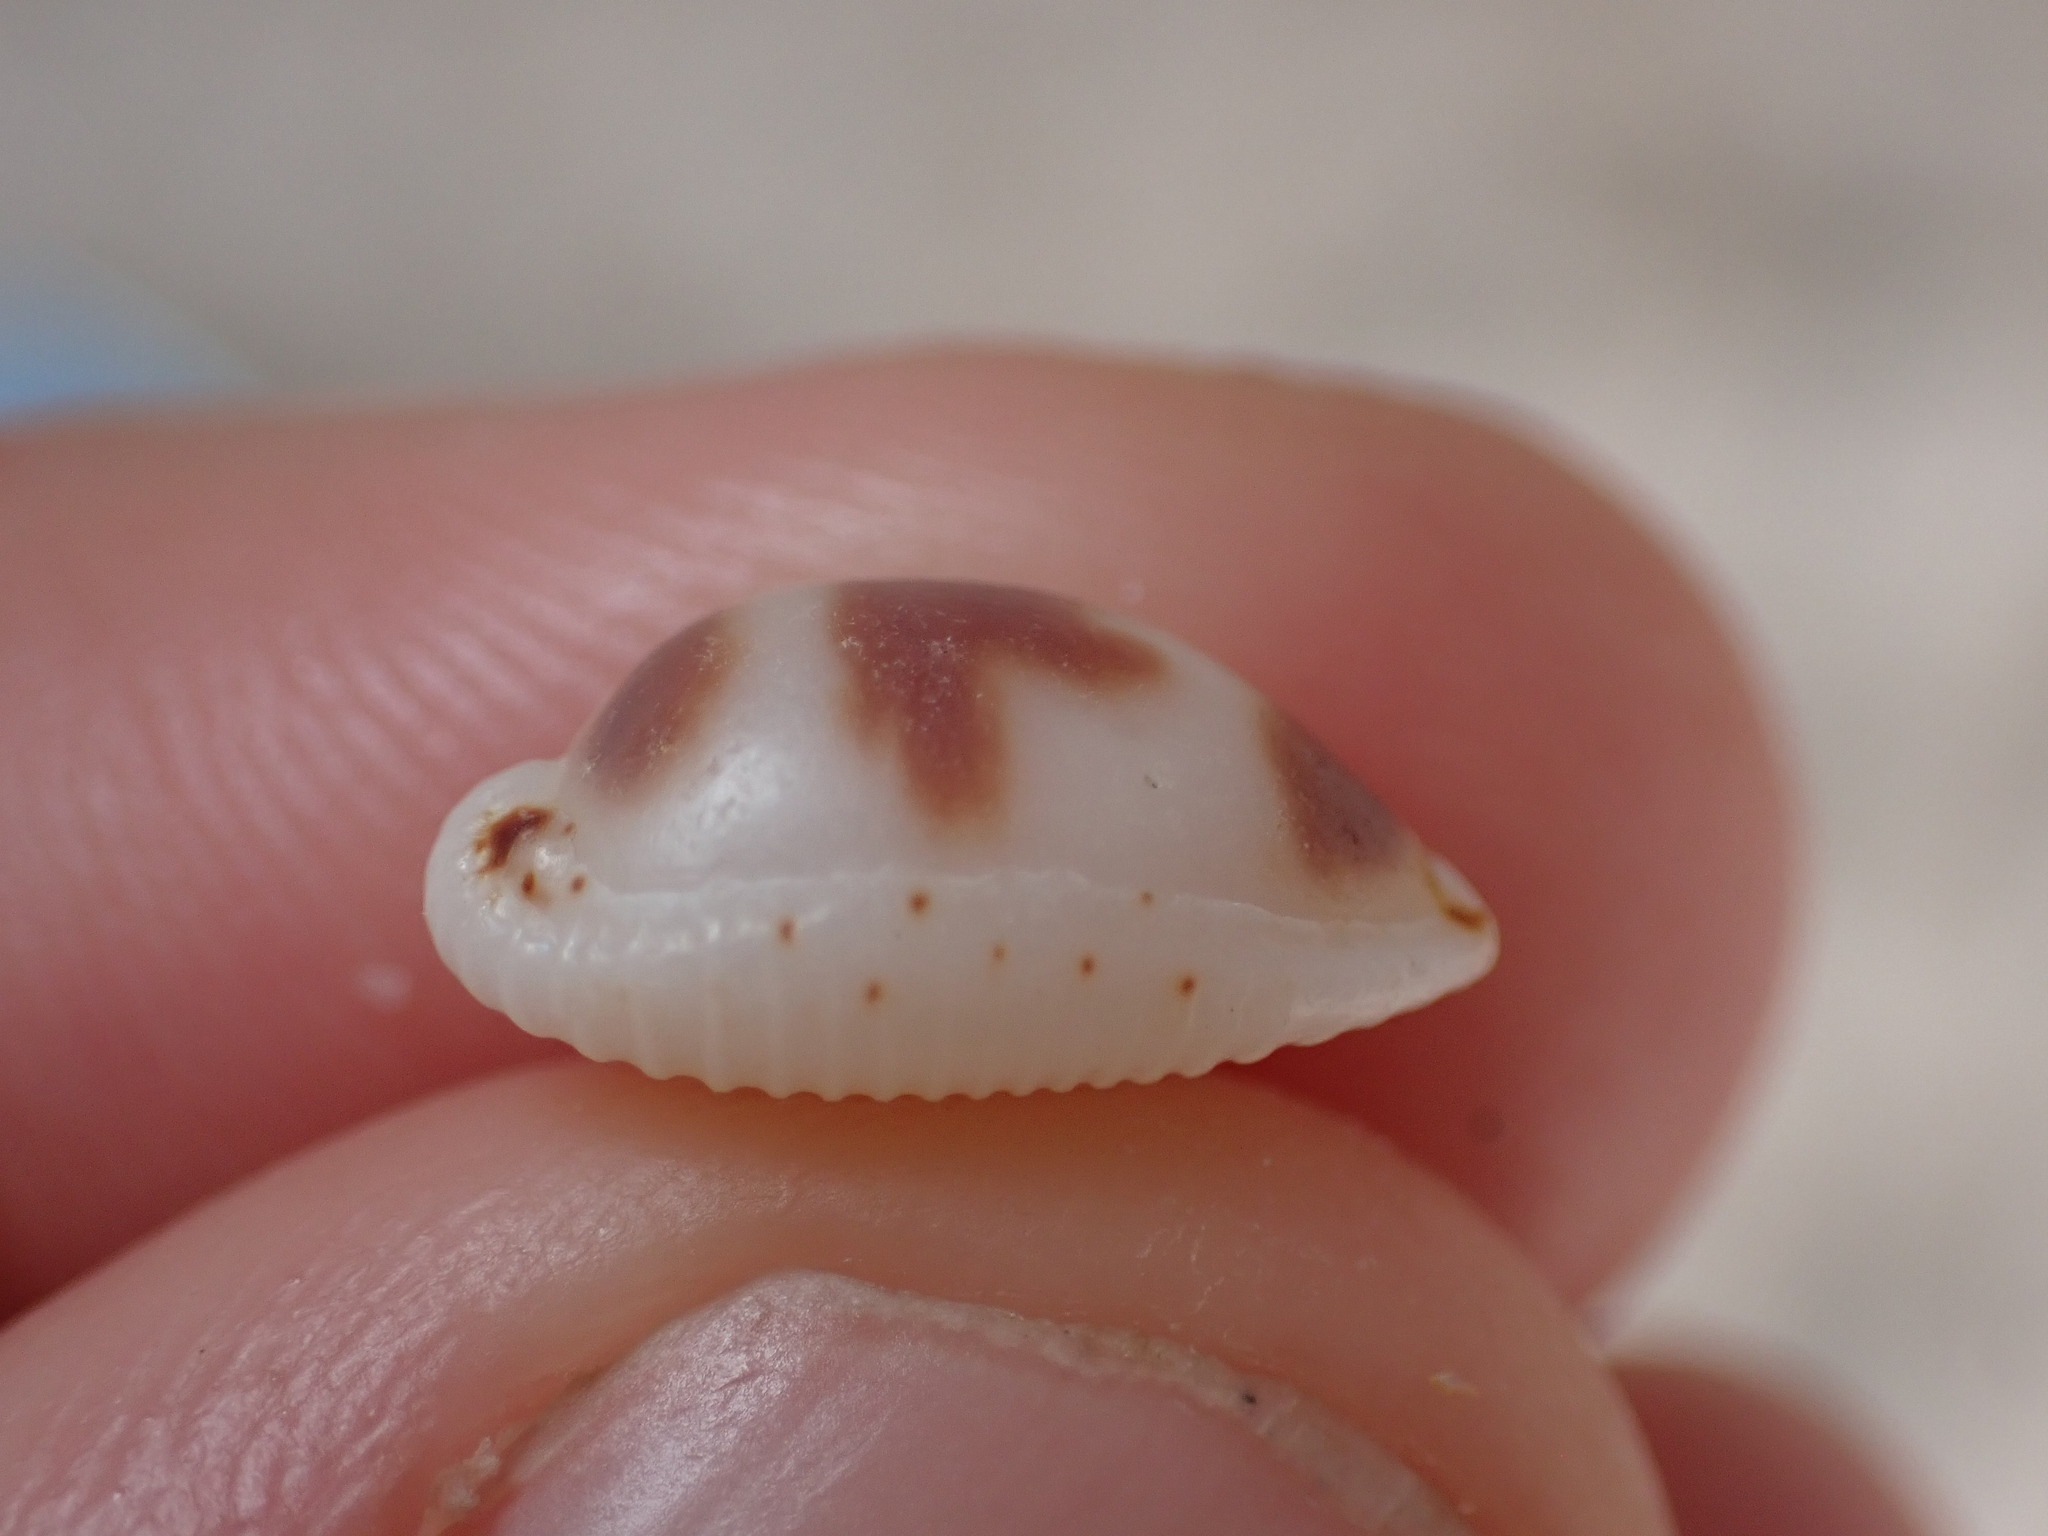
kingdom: Animalia
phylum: Mollusca
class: Gastropoda
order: Littorinimorpha
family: Cypraeidae
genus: Bistolida
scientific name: Bistolida ursellus
